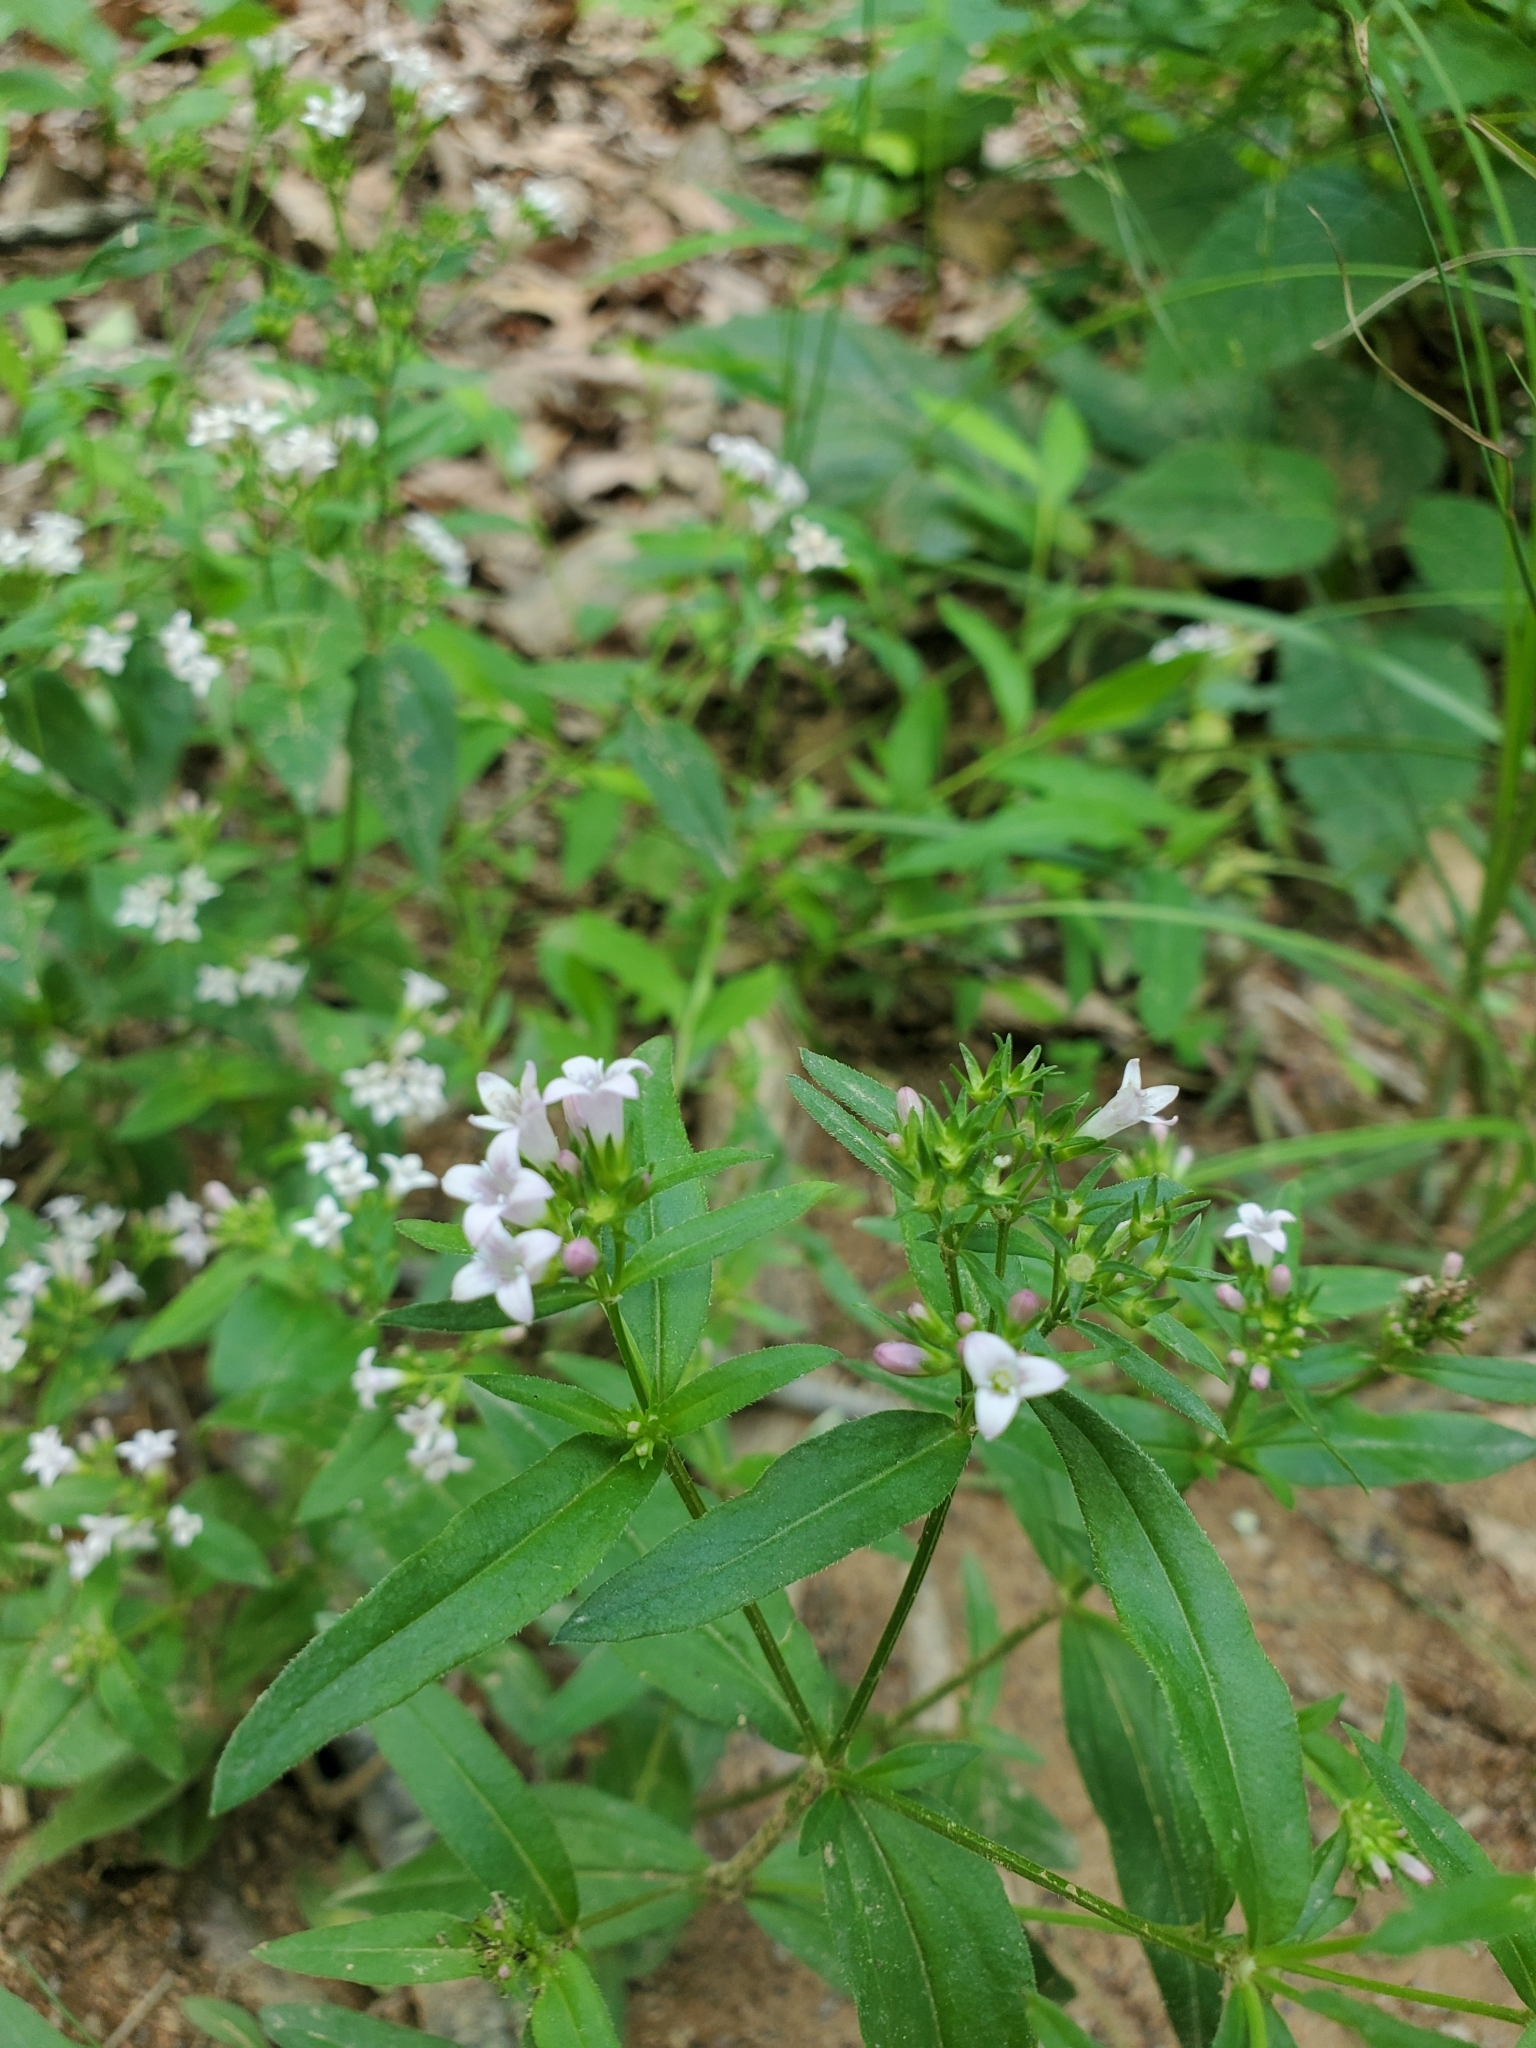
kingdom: Plantae
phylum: Tracheophyta
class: Magnoliopsida
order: Gentianales
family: Rubiaceae
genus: Houstonia
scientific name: Houstonia purpurea
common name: Summer bluet
